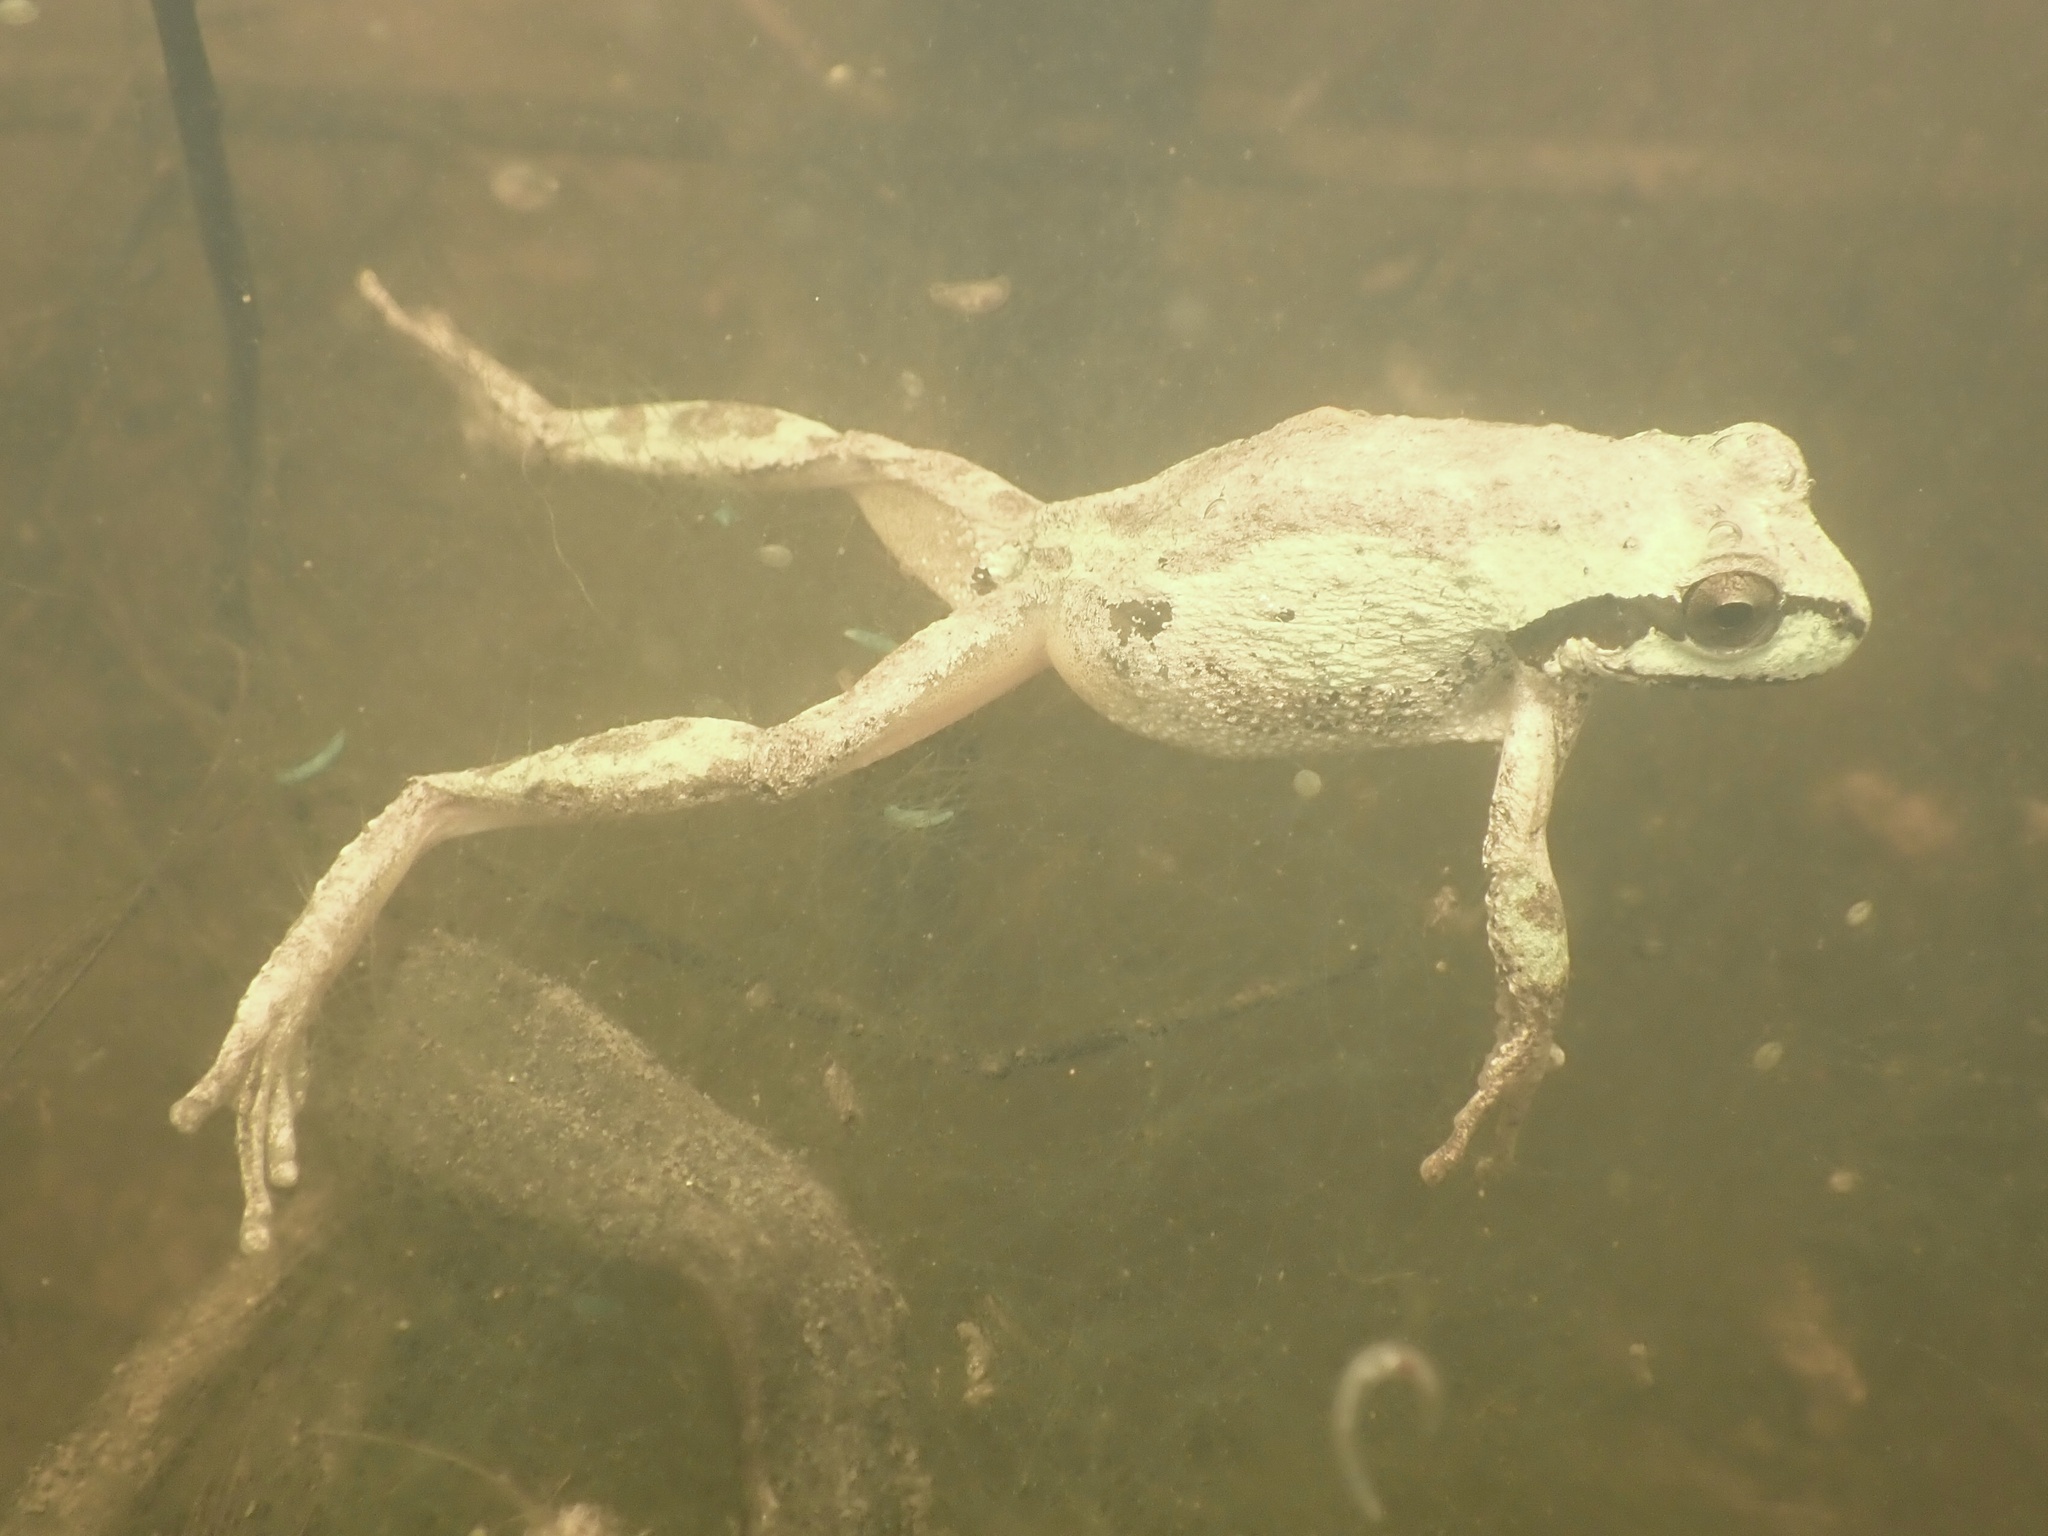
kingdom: Animalia
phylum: Chordata
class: Amphibia
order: Anura
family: Hylidae
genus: Pseudacris
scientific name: Pseudacris regilla
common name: Pacific chorus frog
